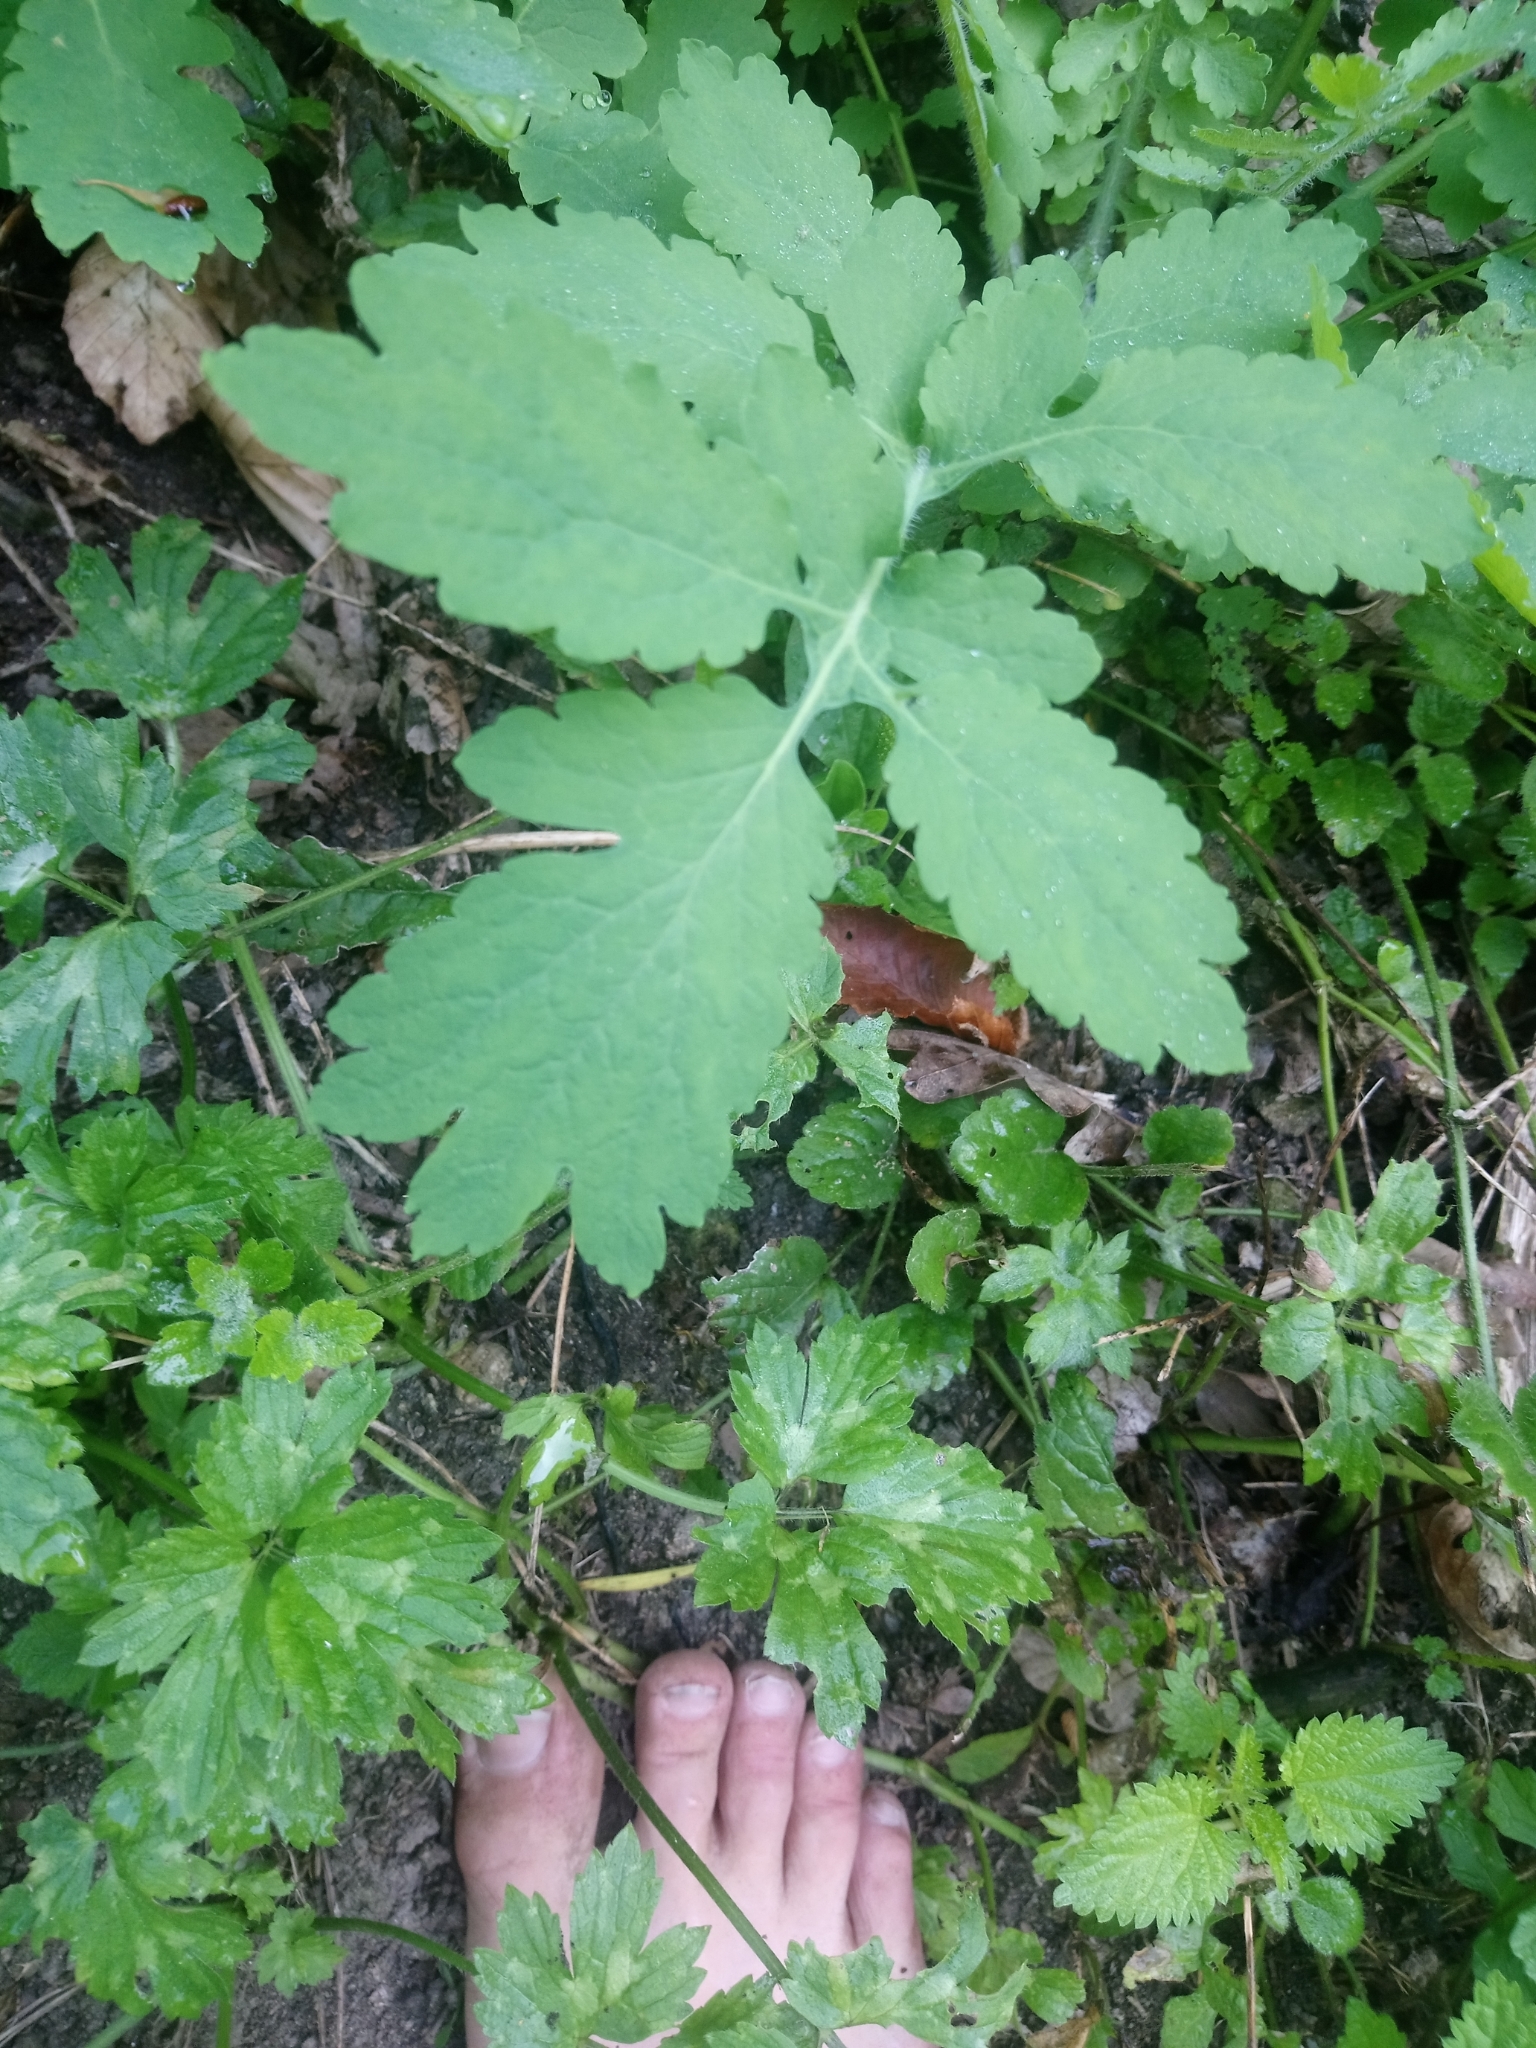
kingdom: Plantae
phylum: Tracheophyta
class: Magnoliopsida
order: Ranunculales
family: Papaveraceae
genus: Chelidonium
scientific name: Chelidonium majus
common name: Greater celandine
